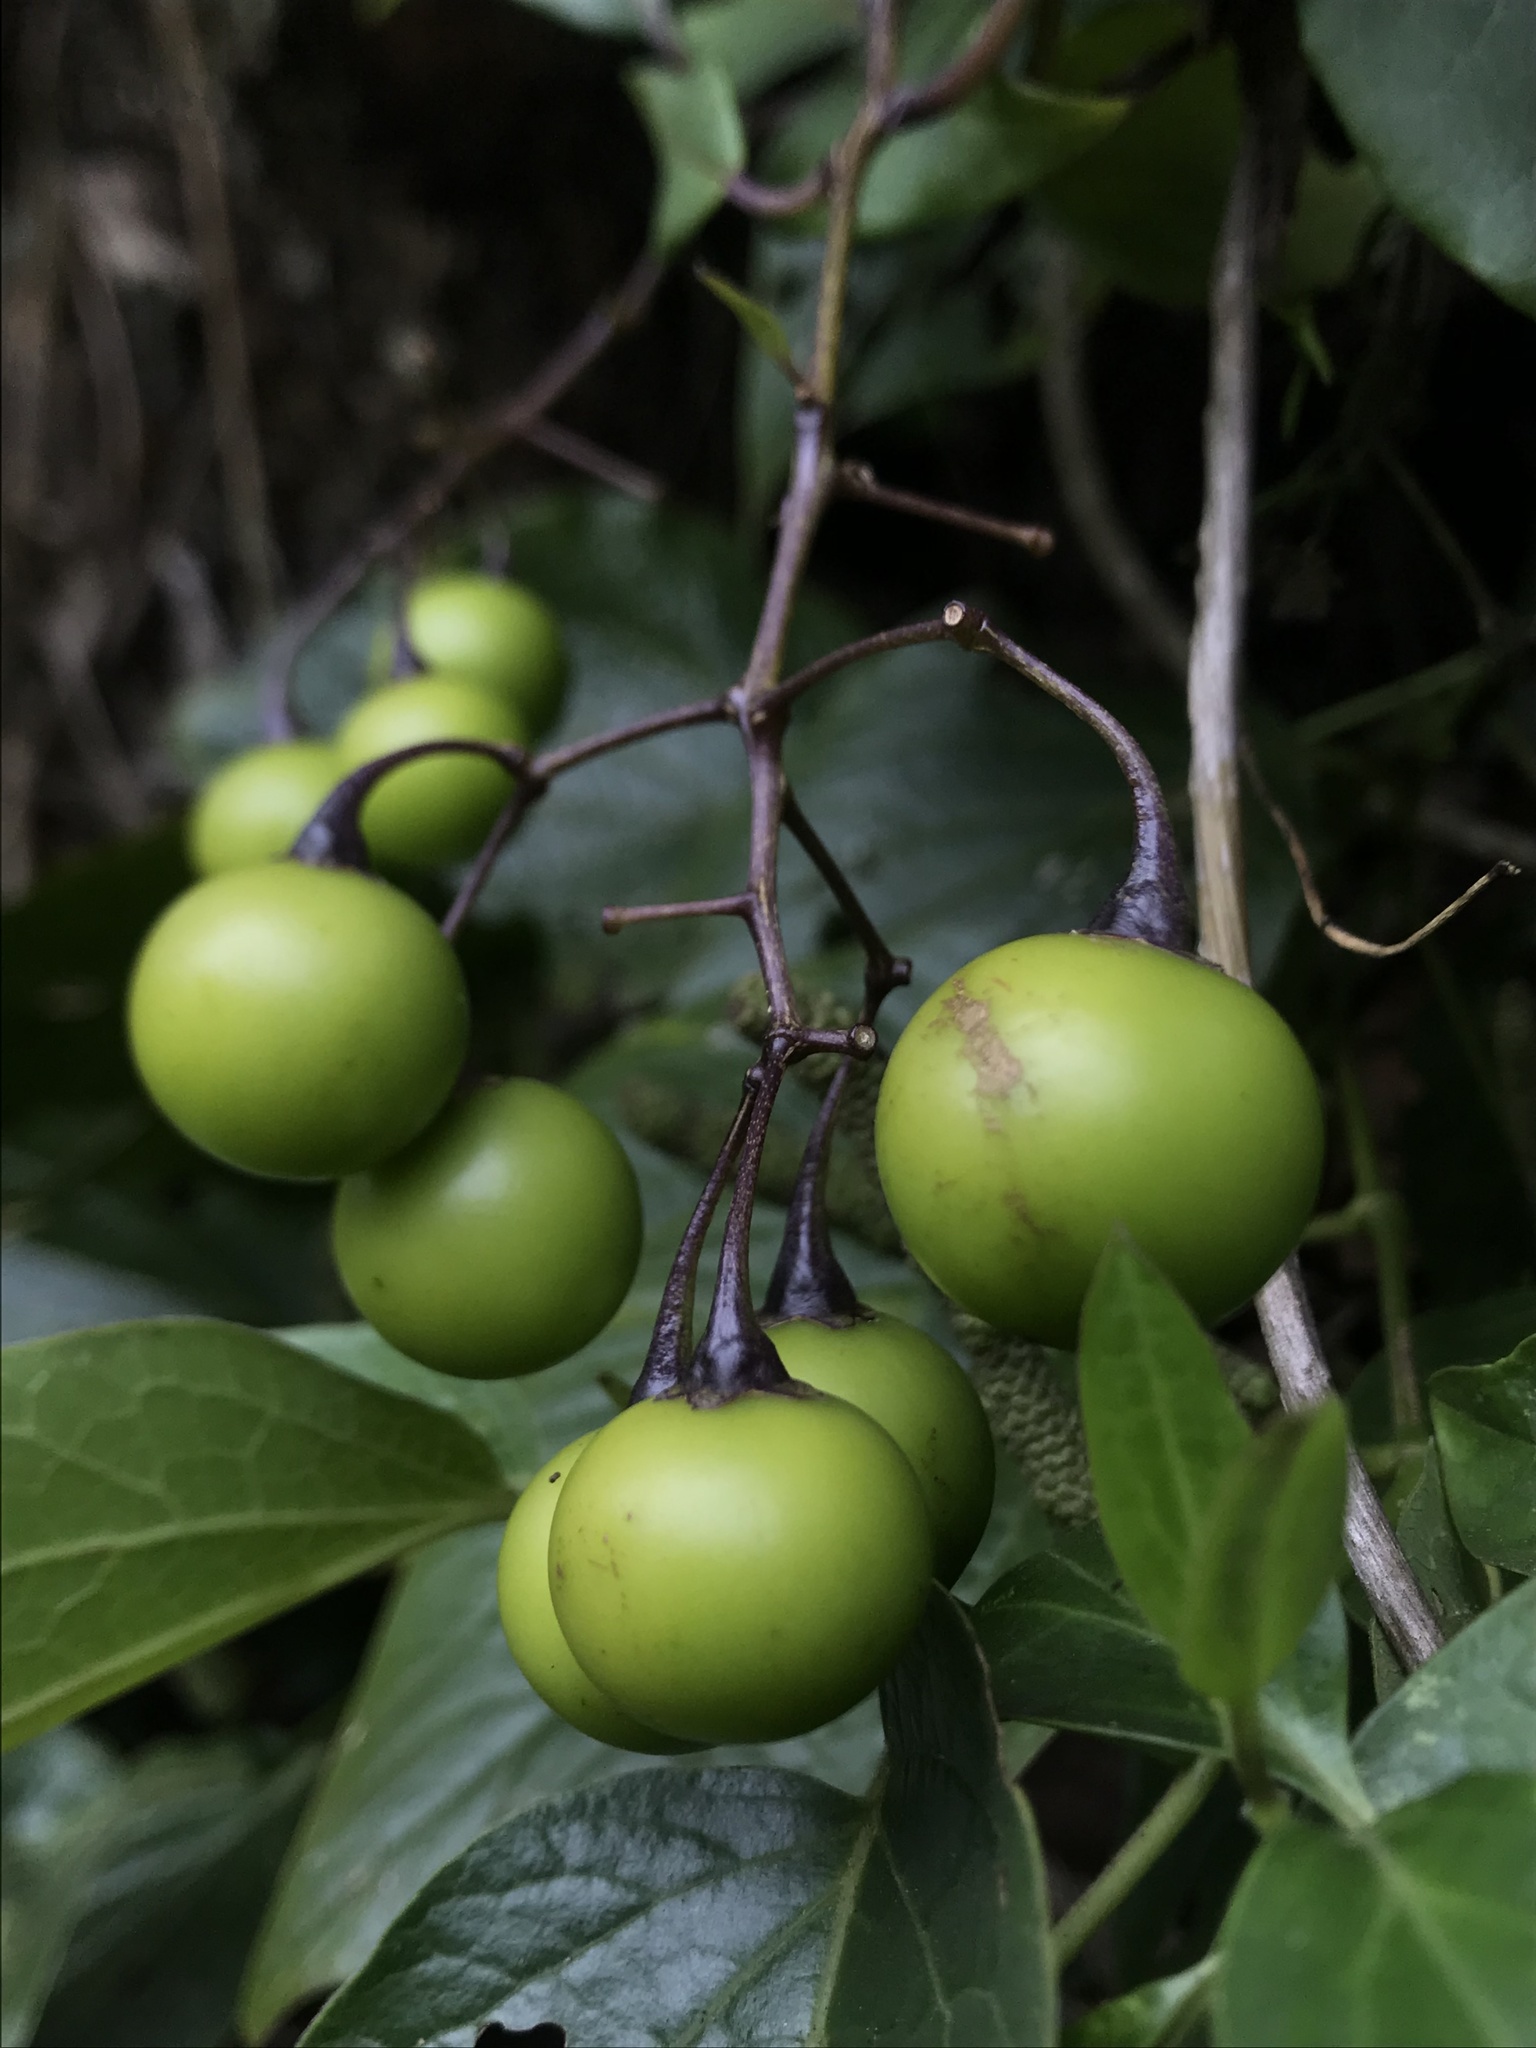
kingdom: Plantae
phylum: Tracheophyta
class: Magnoliopsida
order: Solanales
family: Solanaceae
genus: Solanum
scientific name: Solanum luculentum
